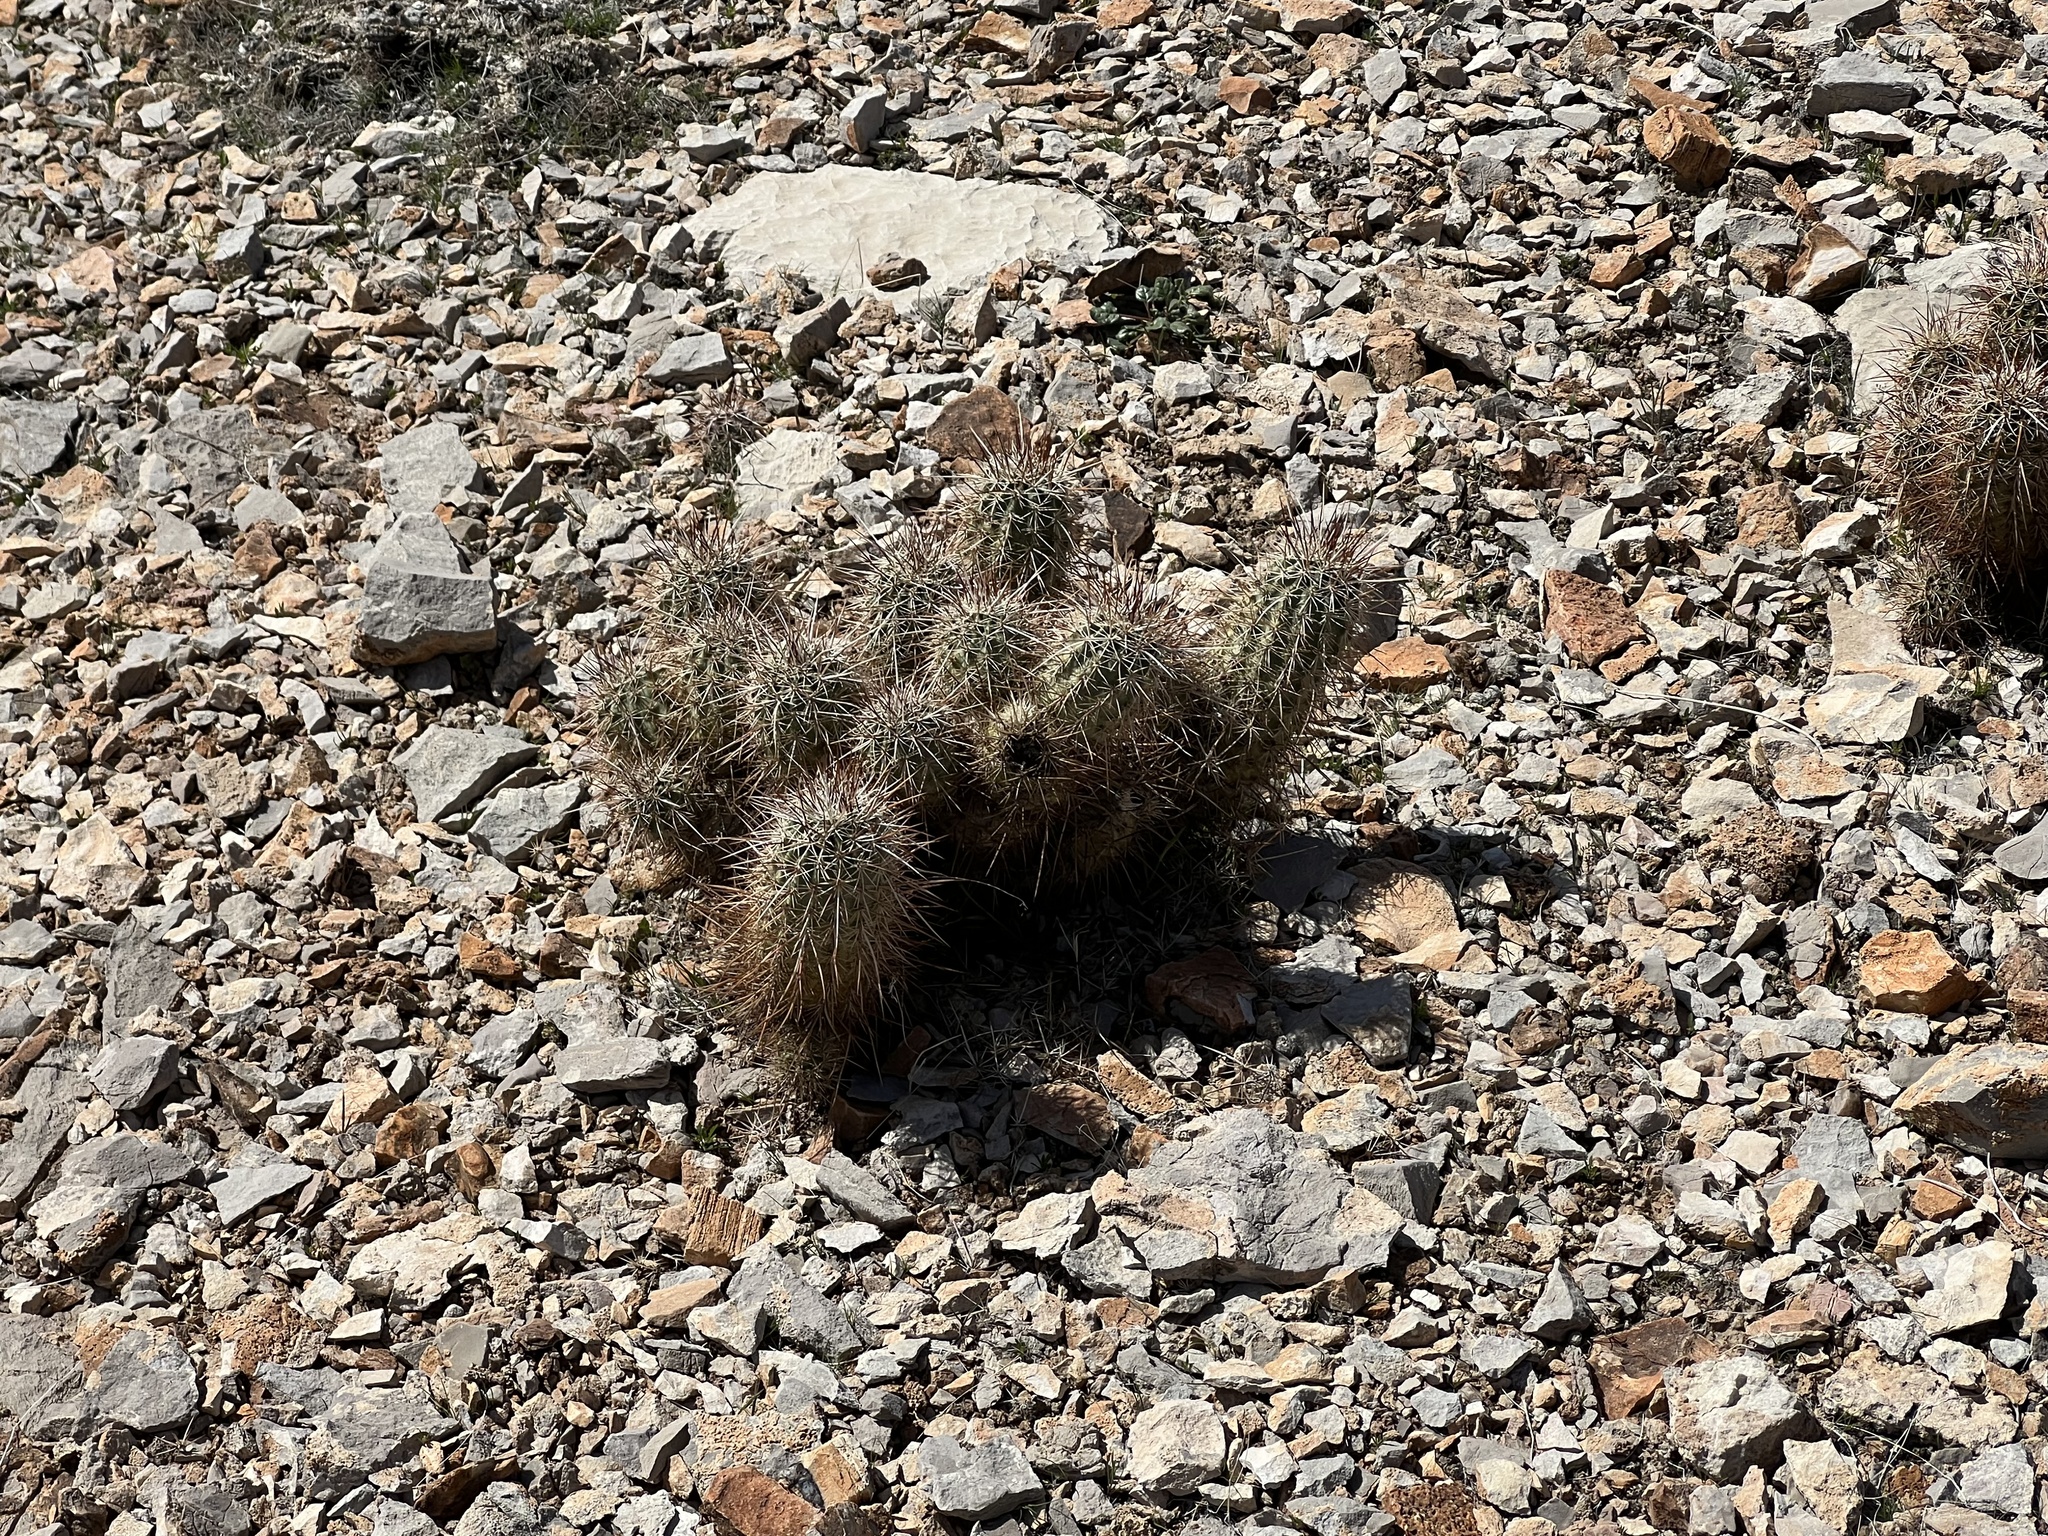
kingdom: Plantae
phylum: Tracheophyta
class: Magnoliopsida
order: Caryophyllales
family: Cactaceae
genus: Echinocereus
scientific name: Echinocereus engelmannii
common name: Engelmann's hedgehog cactus
